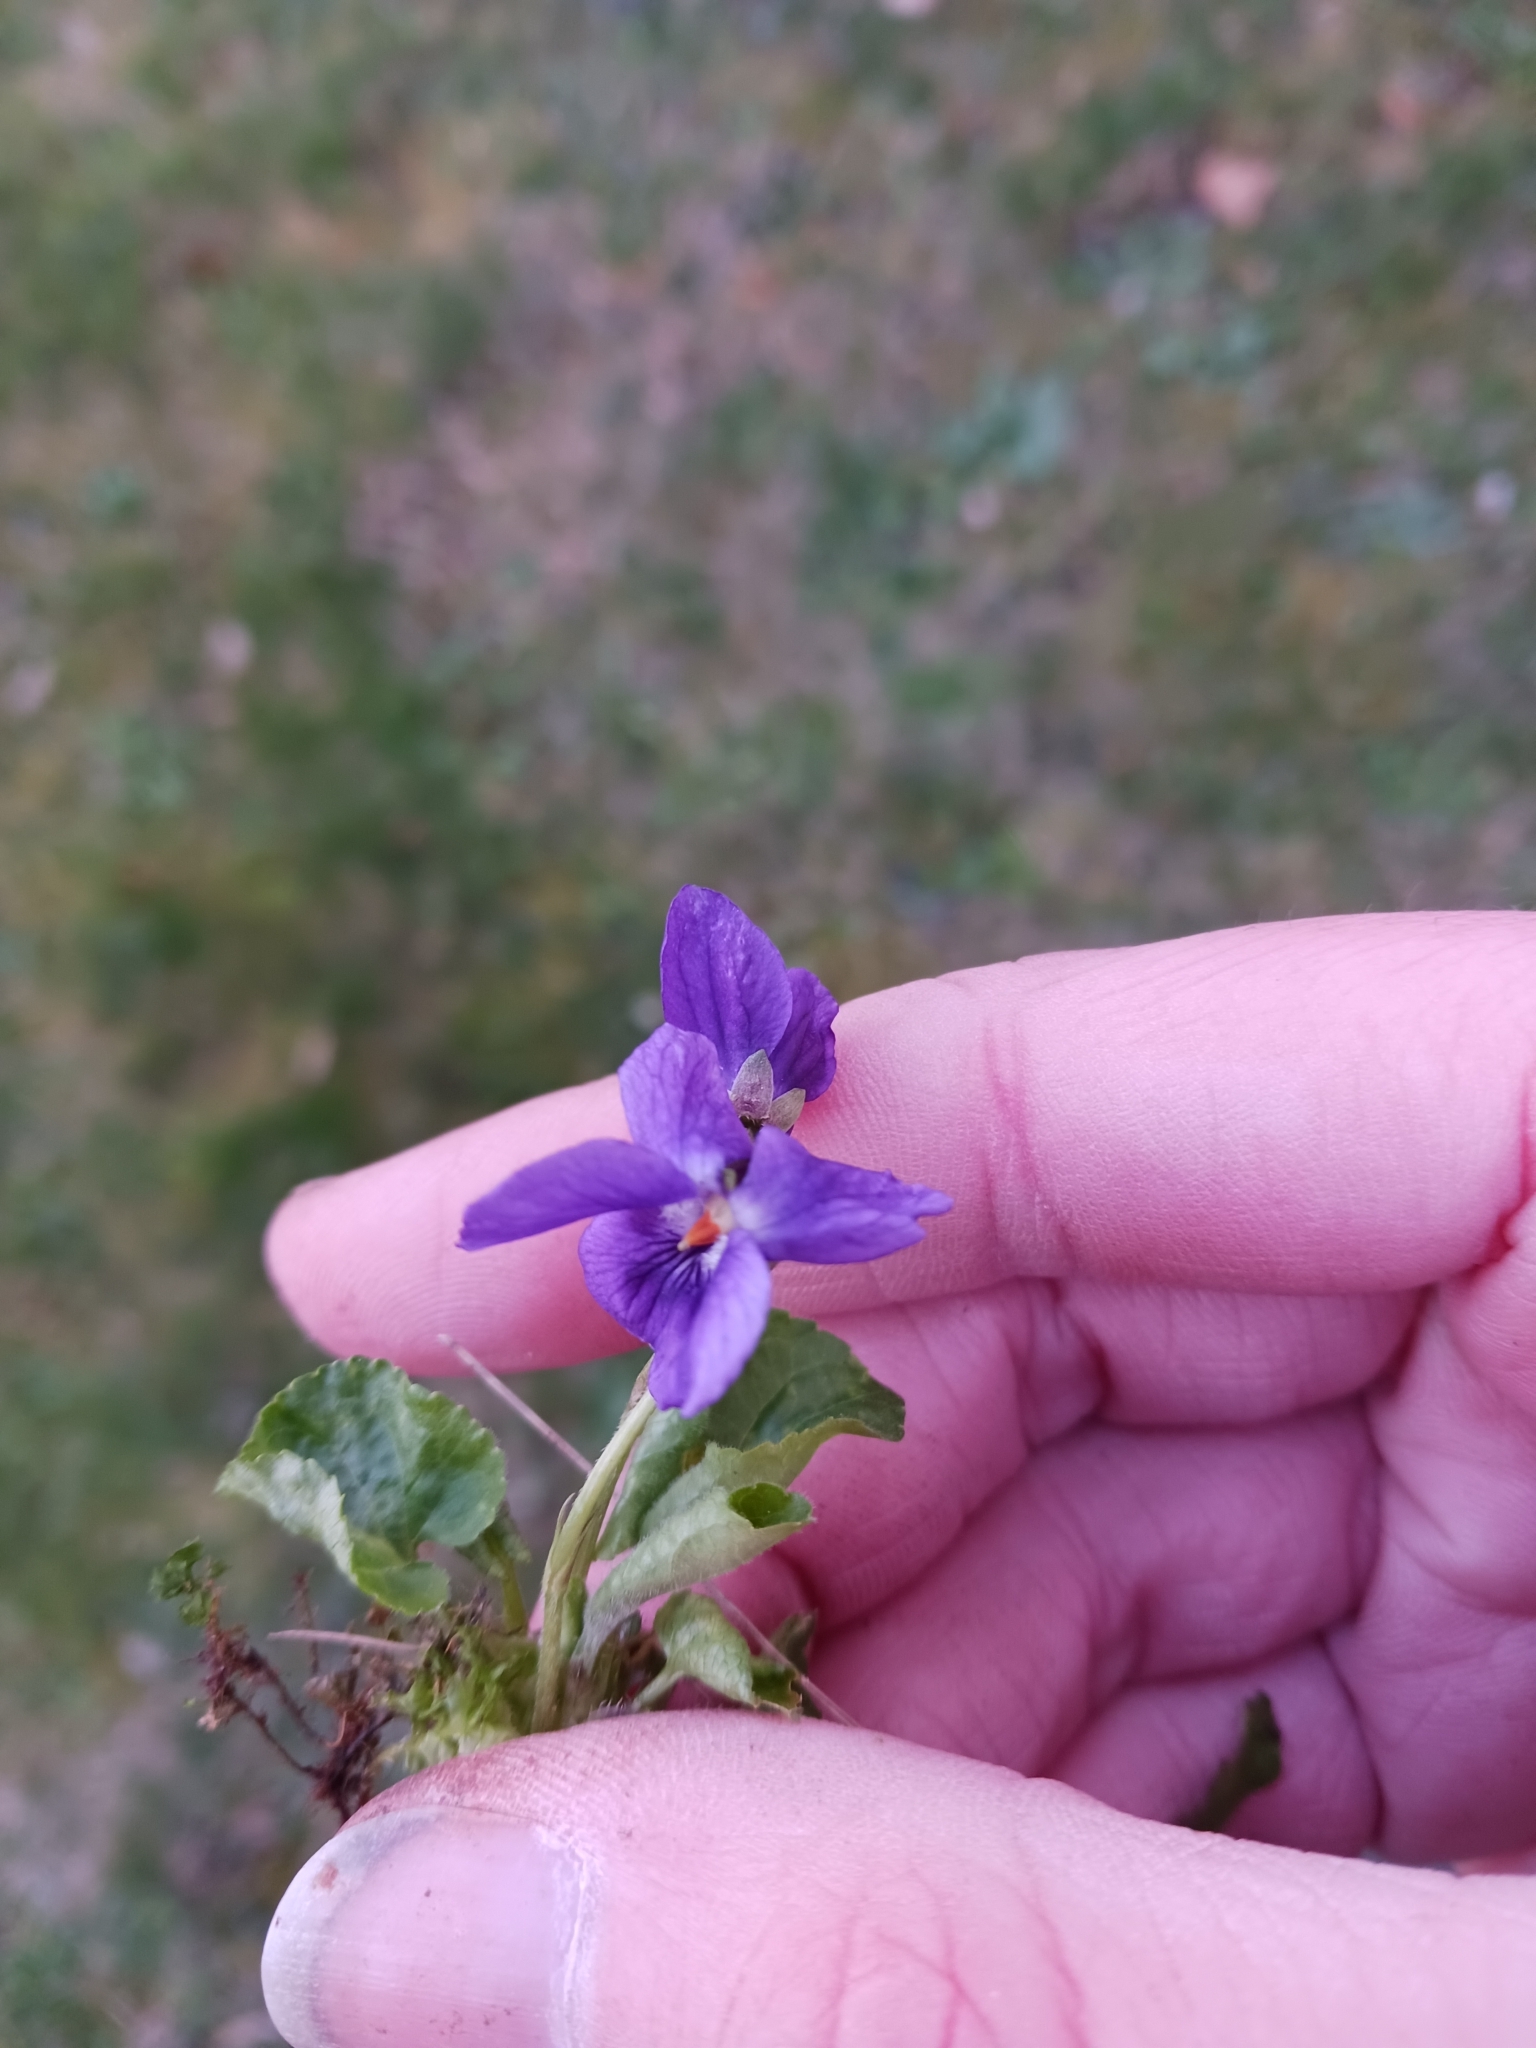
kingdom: Plantae
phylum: Tracheophyta
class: Magnoliopsida
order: Malpighiales
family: Violaceae
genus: Viola
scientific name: Viola odorata
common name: Sweet violet
